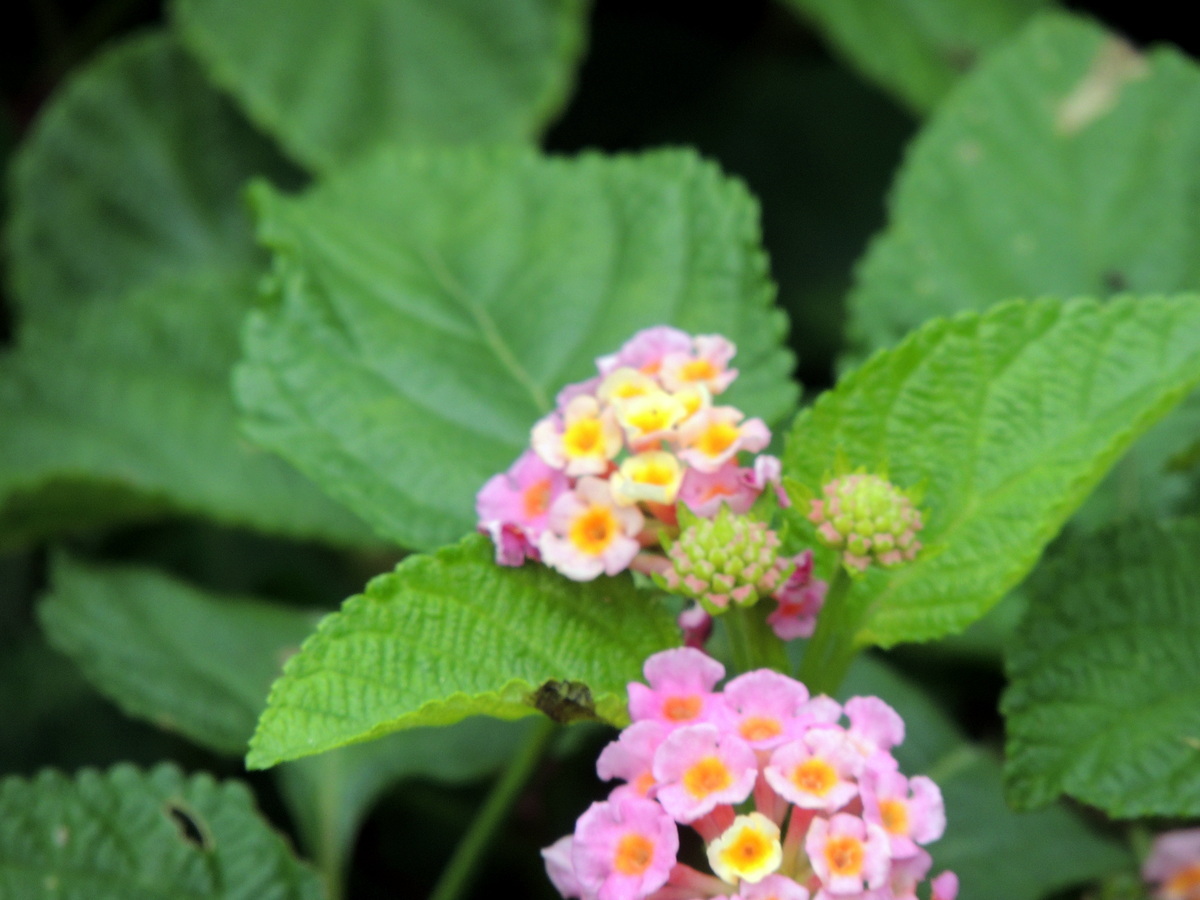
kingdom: Plantae
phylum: Tracheophyta
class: Magnoliopsida
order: Lamiales
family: Verbenaceae
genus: Lantana
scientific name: Lantana camara
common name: Lantana
